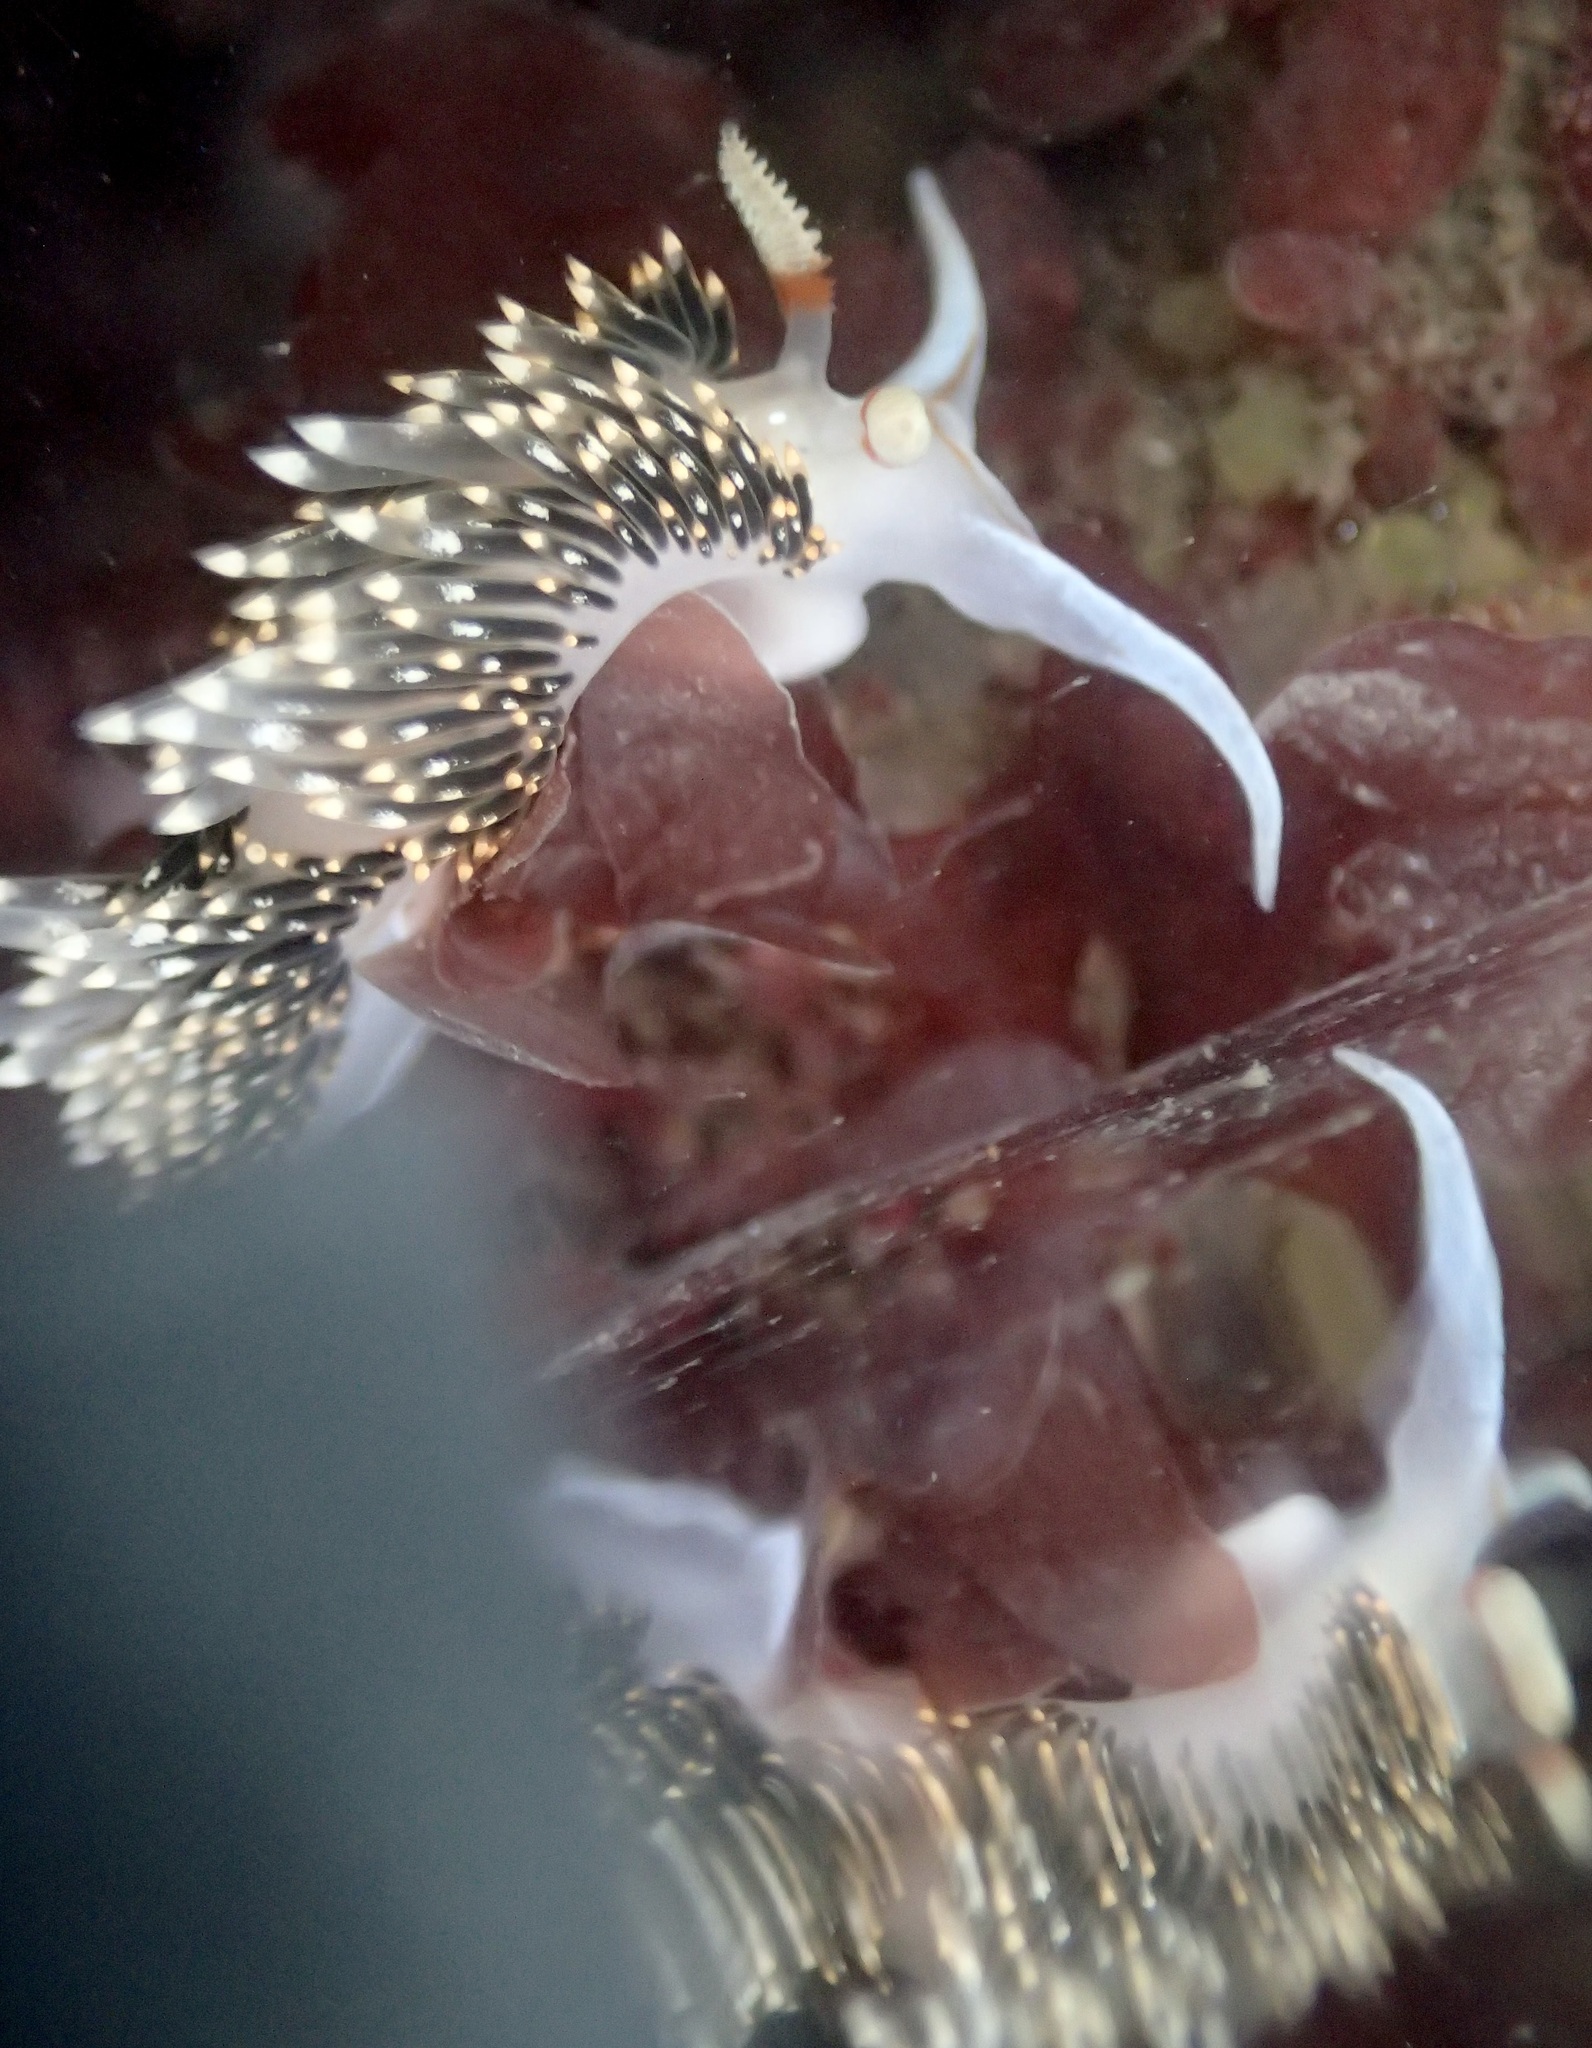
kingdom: Animalia
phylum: Mollusca
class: Gastropoda
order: Nudibranchia
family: Facelinidae
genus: Phidiana
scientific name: Phidiana hiltoni
